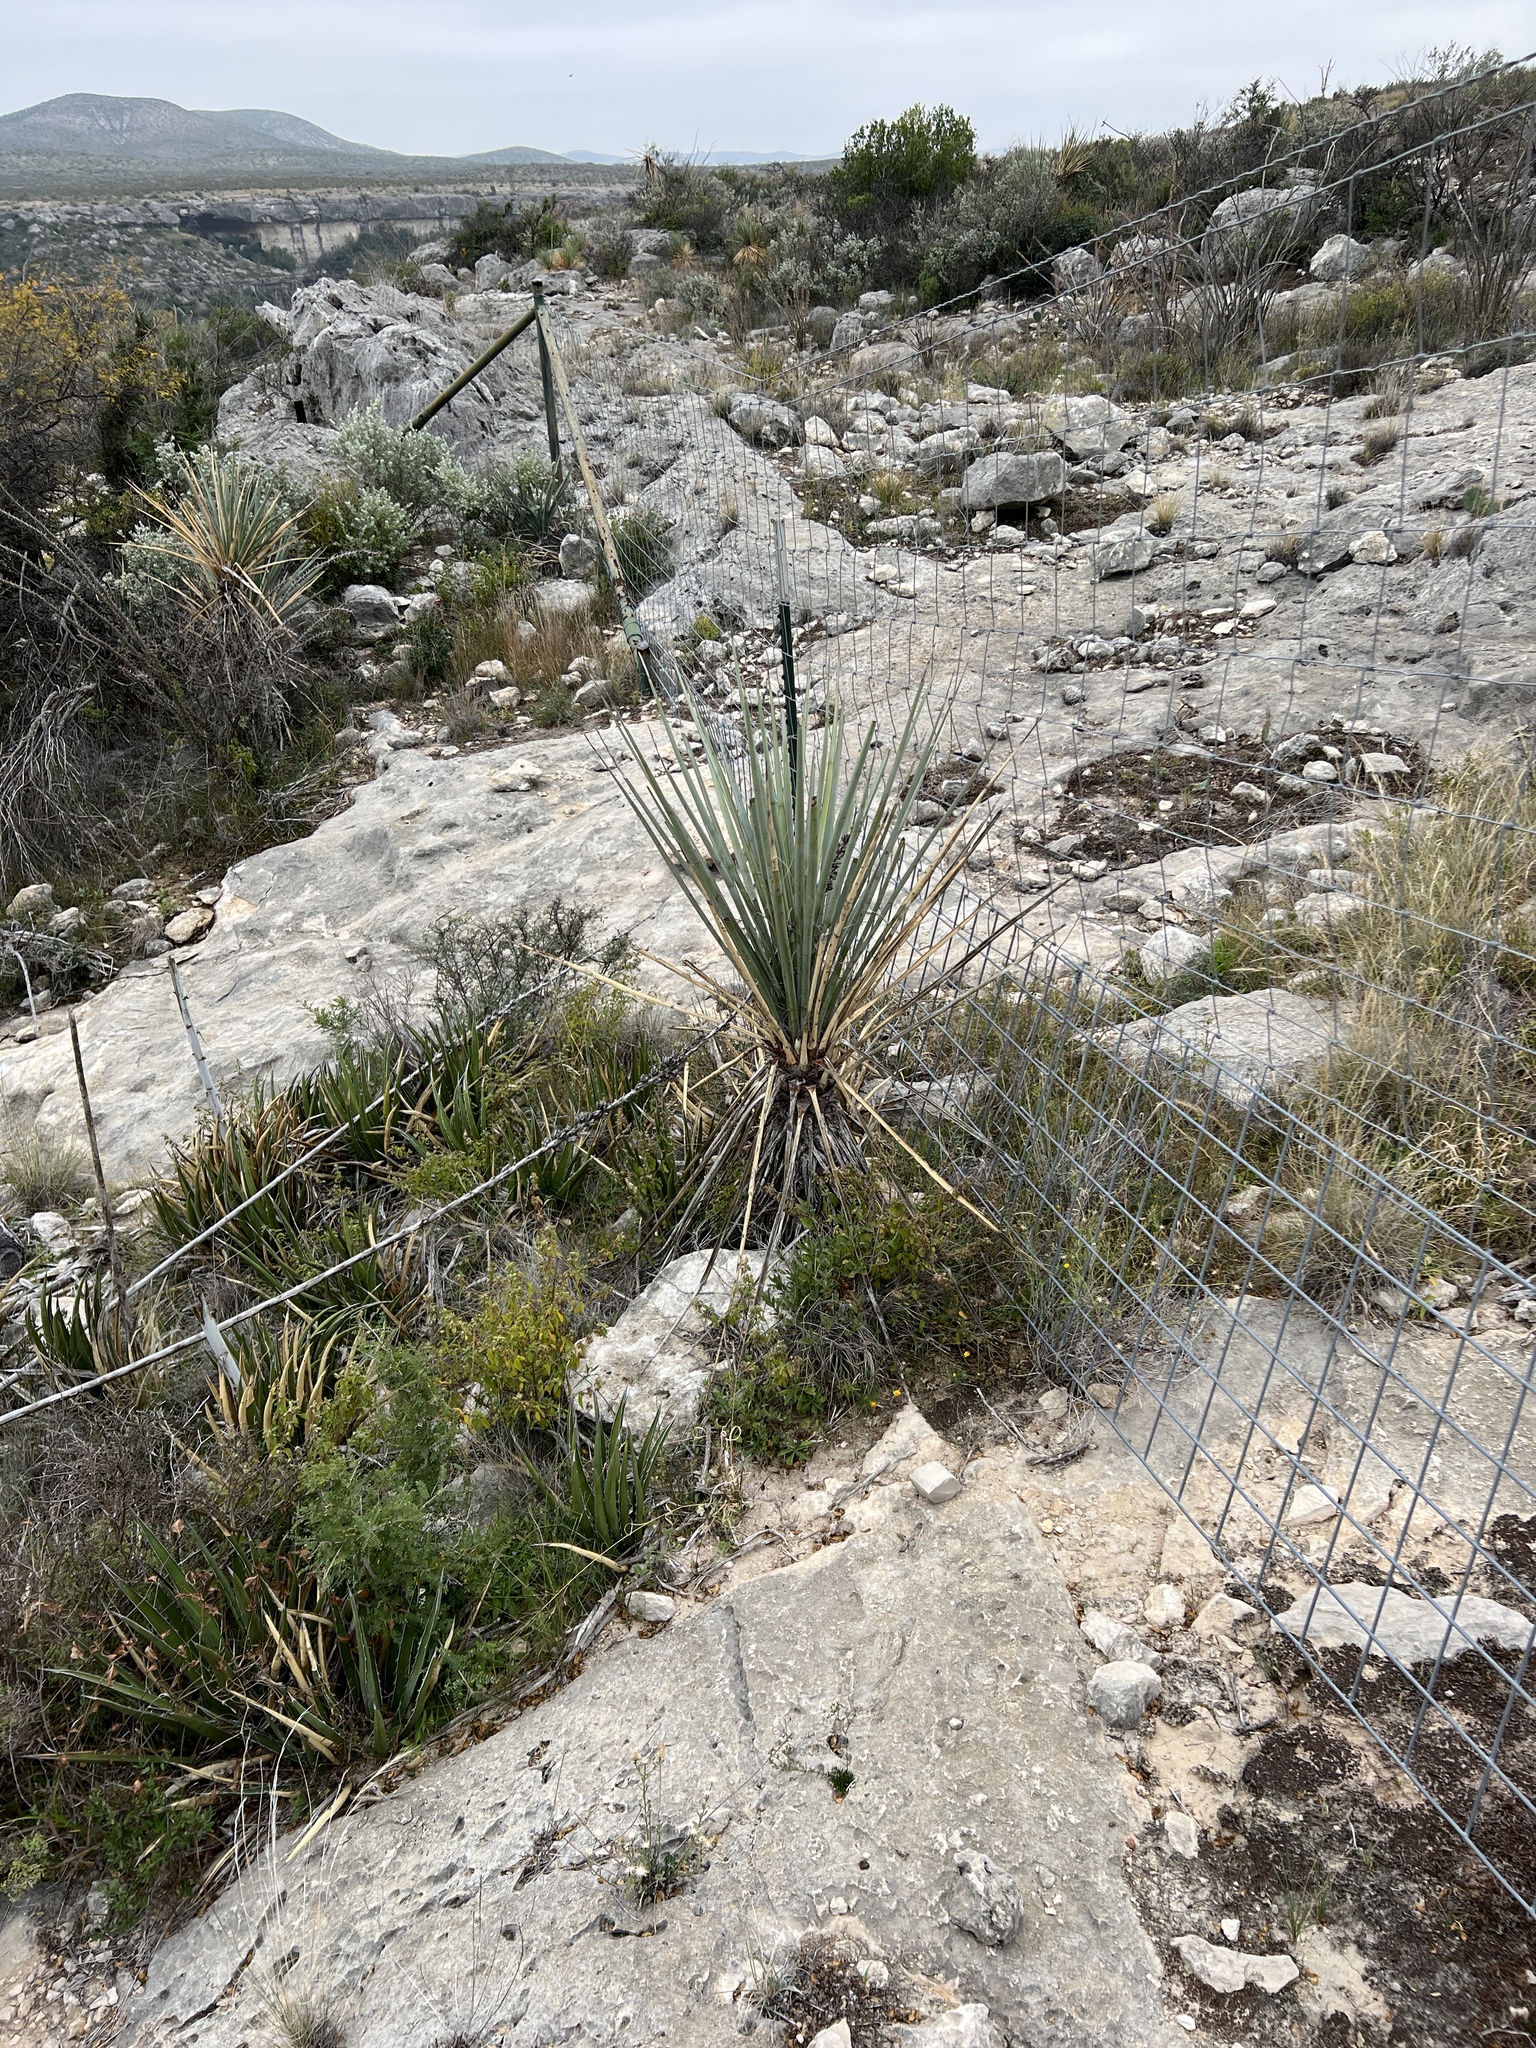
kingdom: Plantae
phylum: Tracheophyta
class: Liliopsida
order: Asparagales
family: Asparagaceae
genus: Yucca
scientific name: Yucca treculiana
